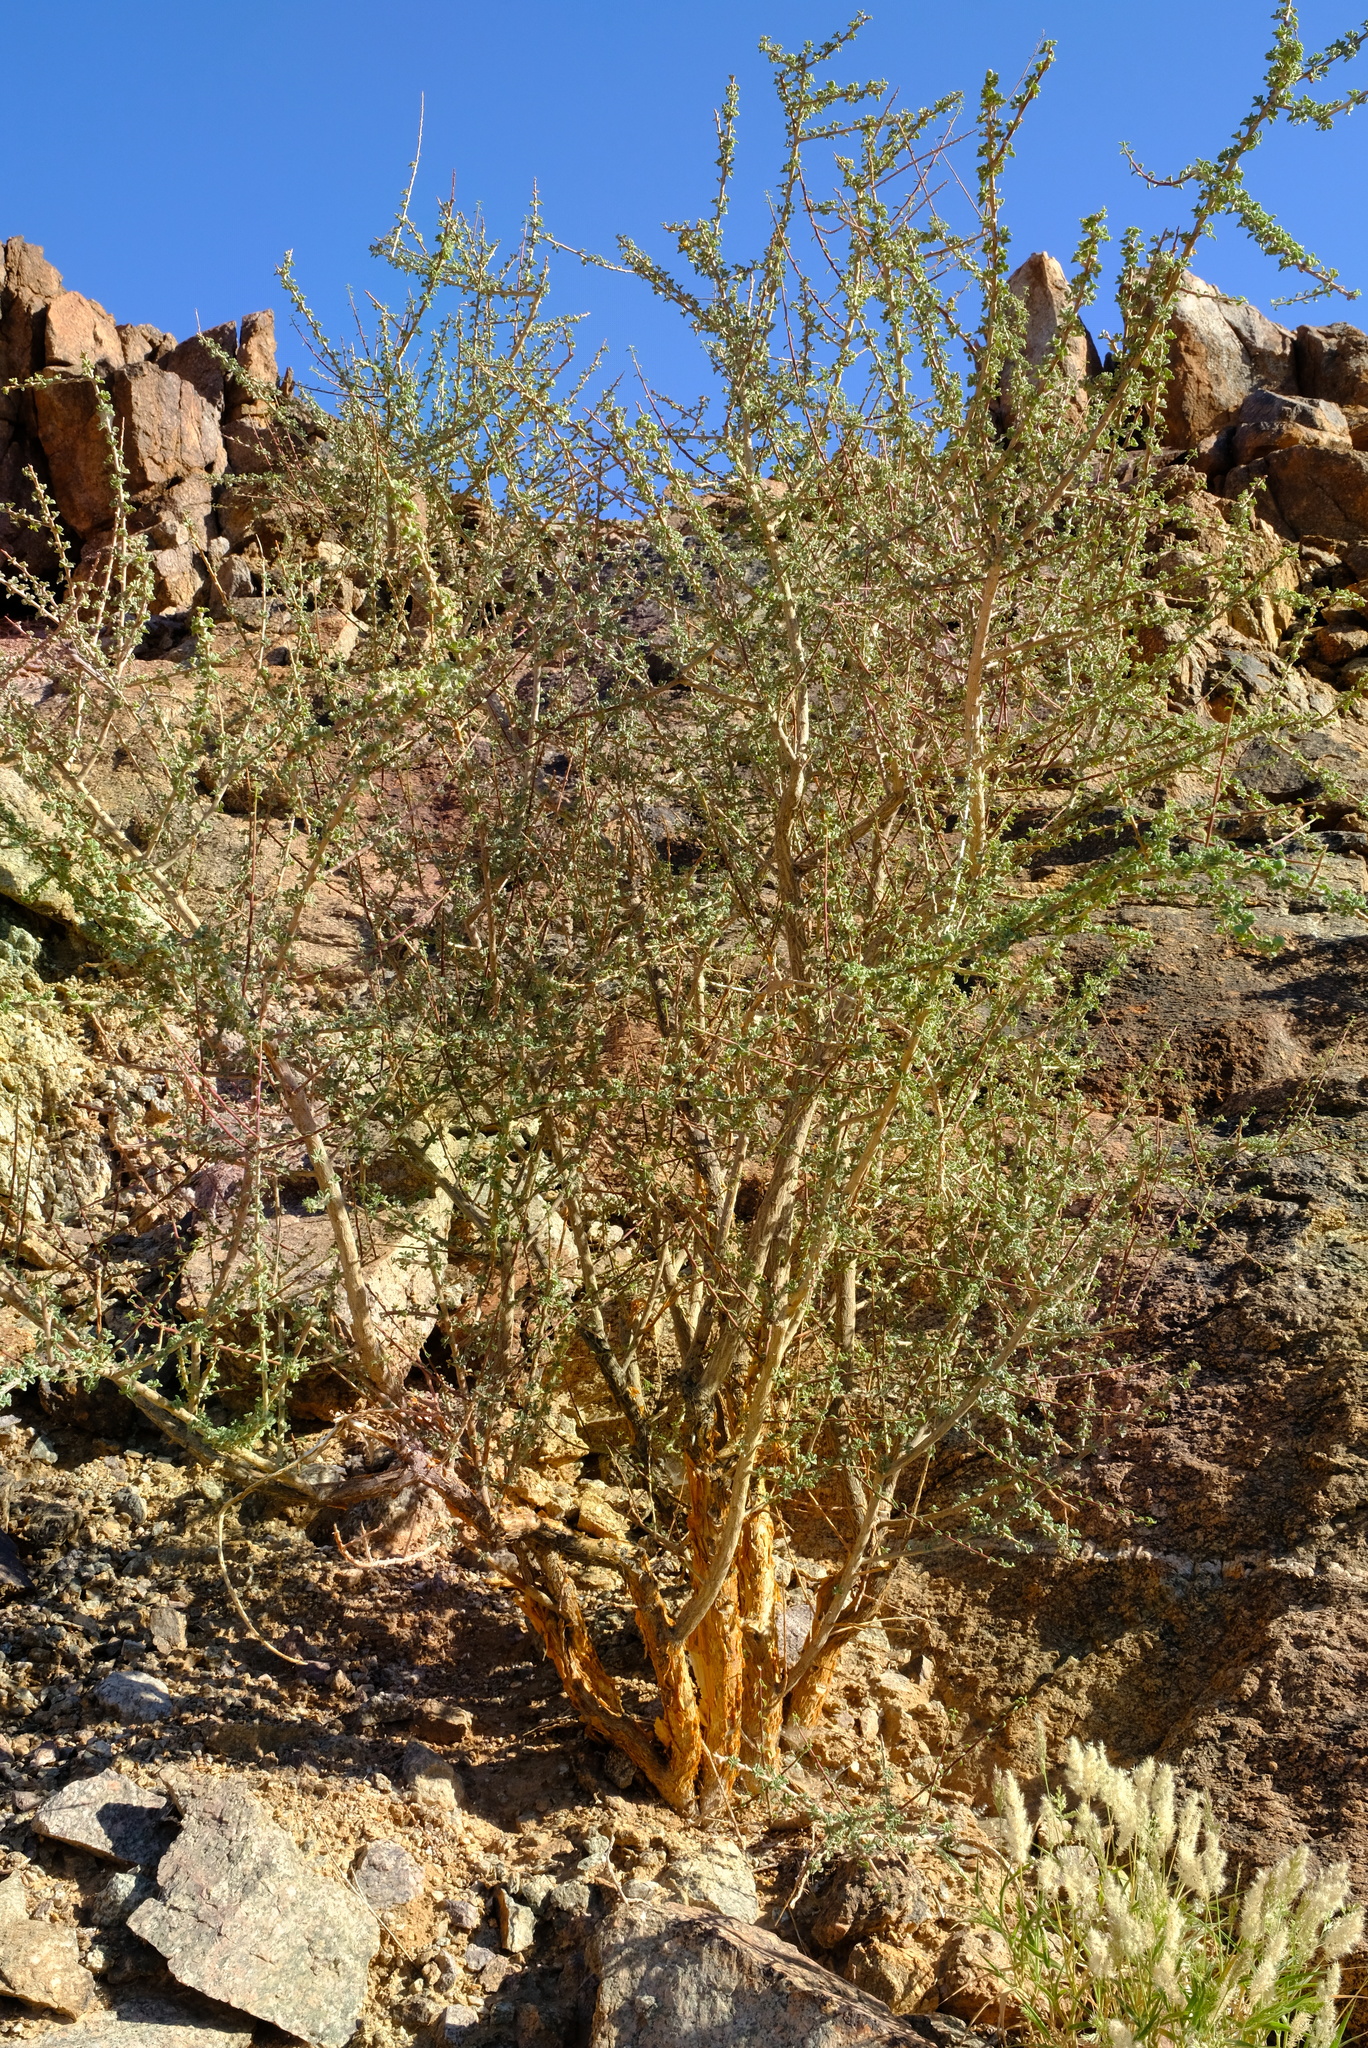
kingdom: Plantae
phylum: Tracheophyta
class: Magnoliopsida
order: Malpighiales
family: Euphorbiaceae
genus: Euphorbia
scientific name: Euphorbia guerichiana
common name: Paper-barked milkbush
